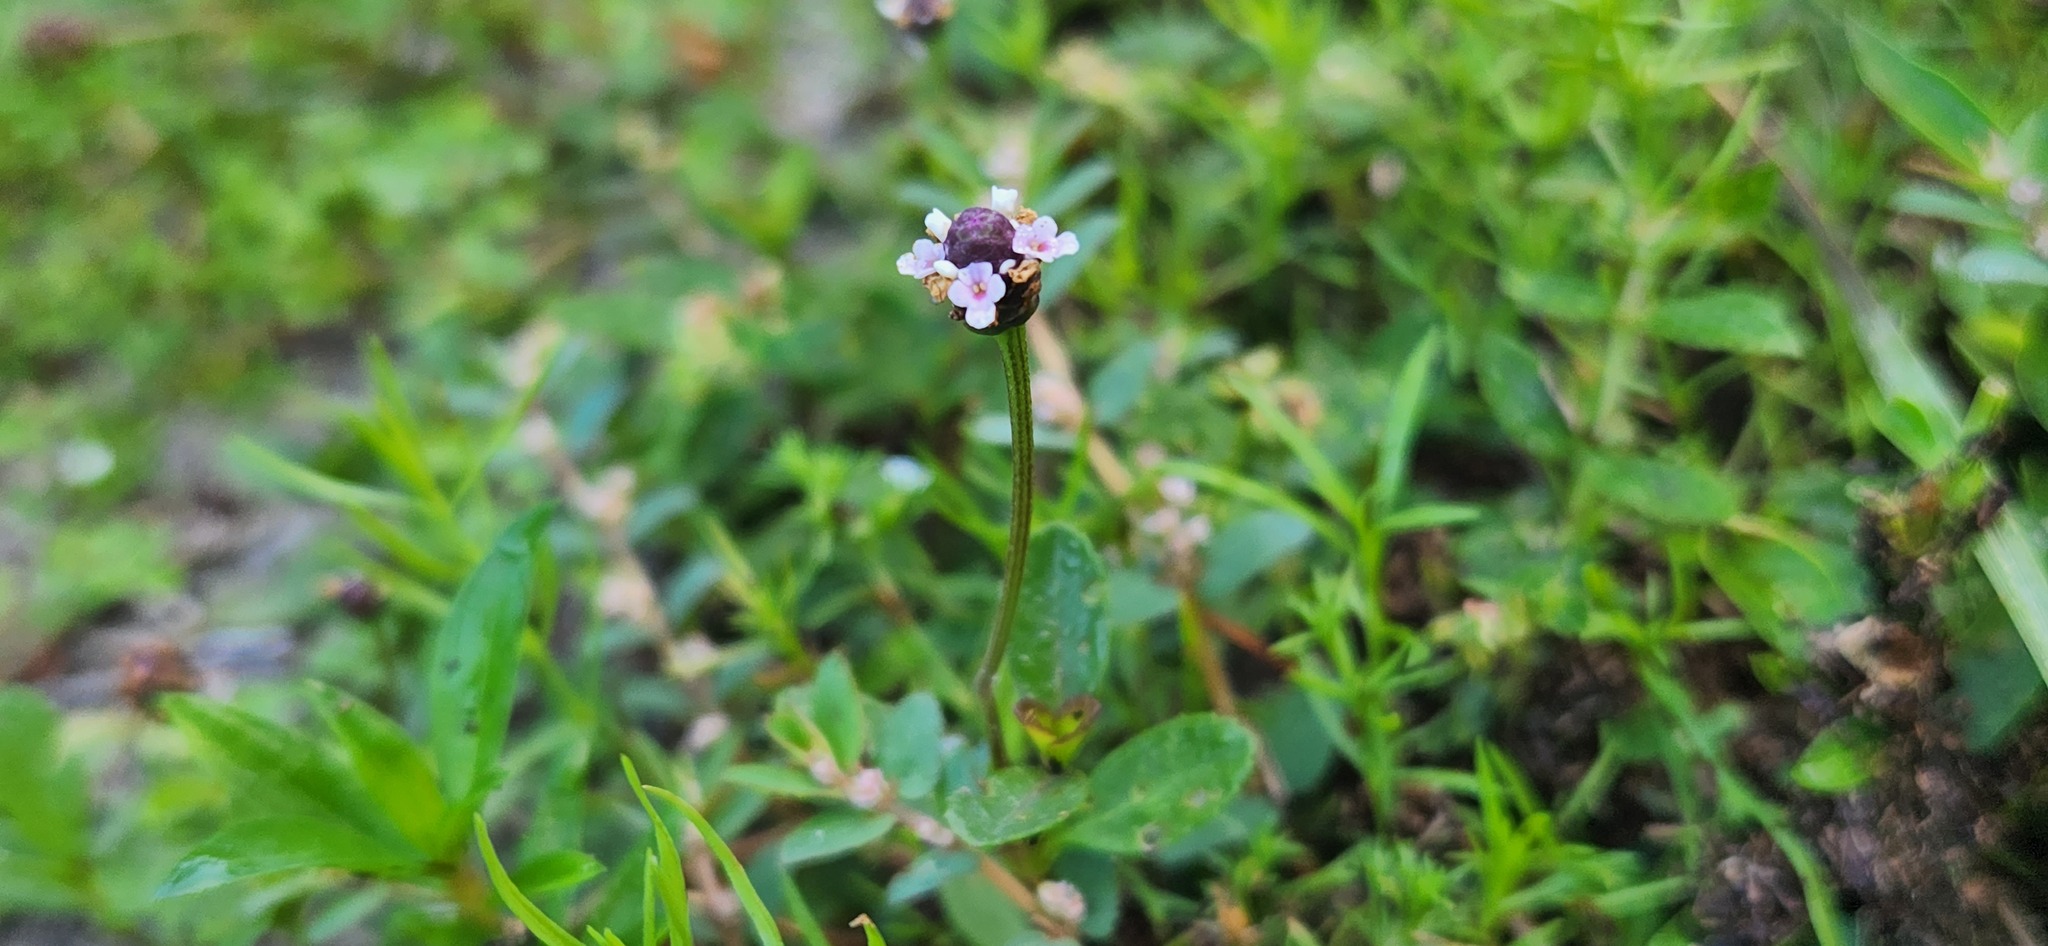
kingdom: Plantae
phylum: Tracheophyta
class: Magnoliopsida
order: Lamiales
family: Verbenaceae
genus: Phyla
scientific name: Phyla nodiflora
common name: Frogfruit
